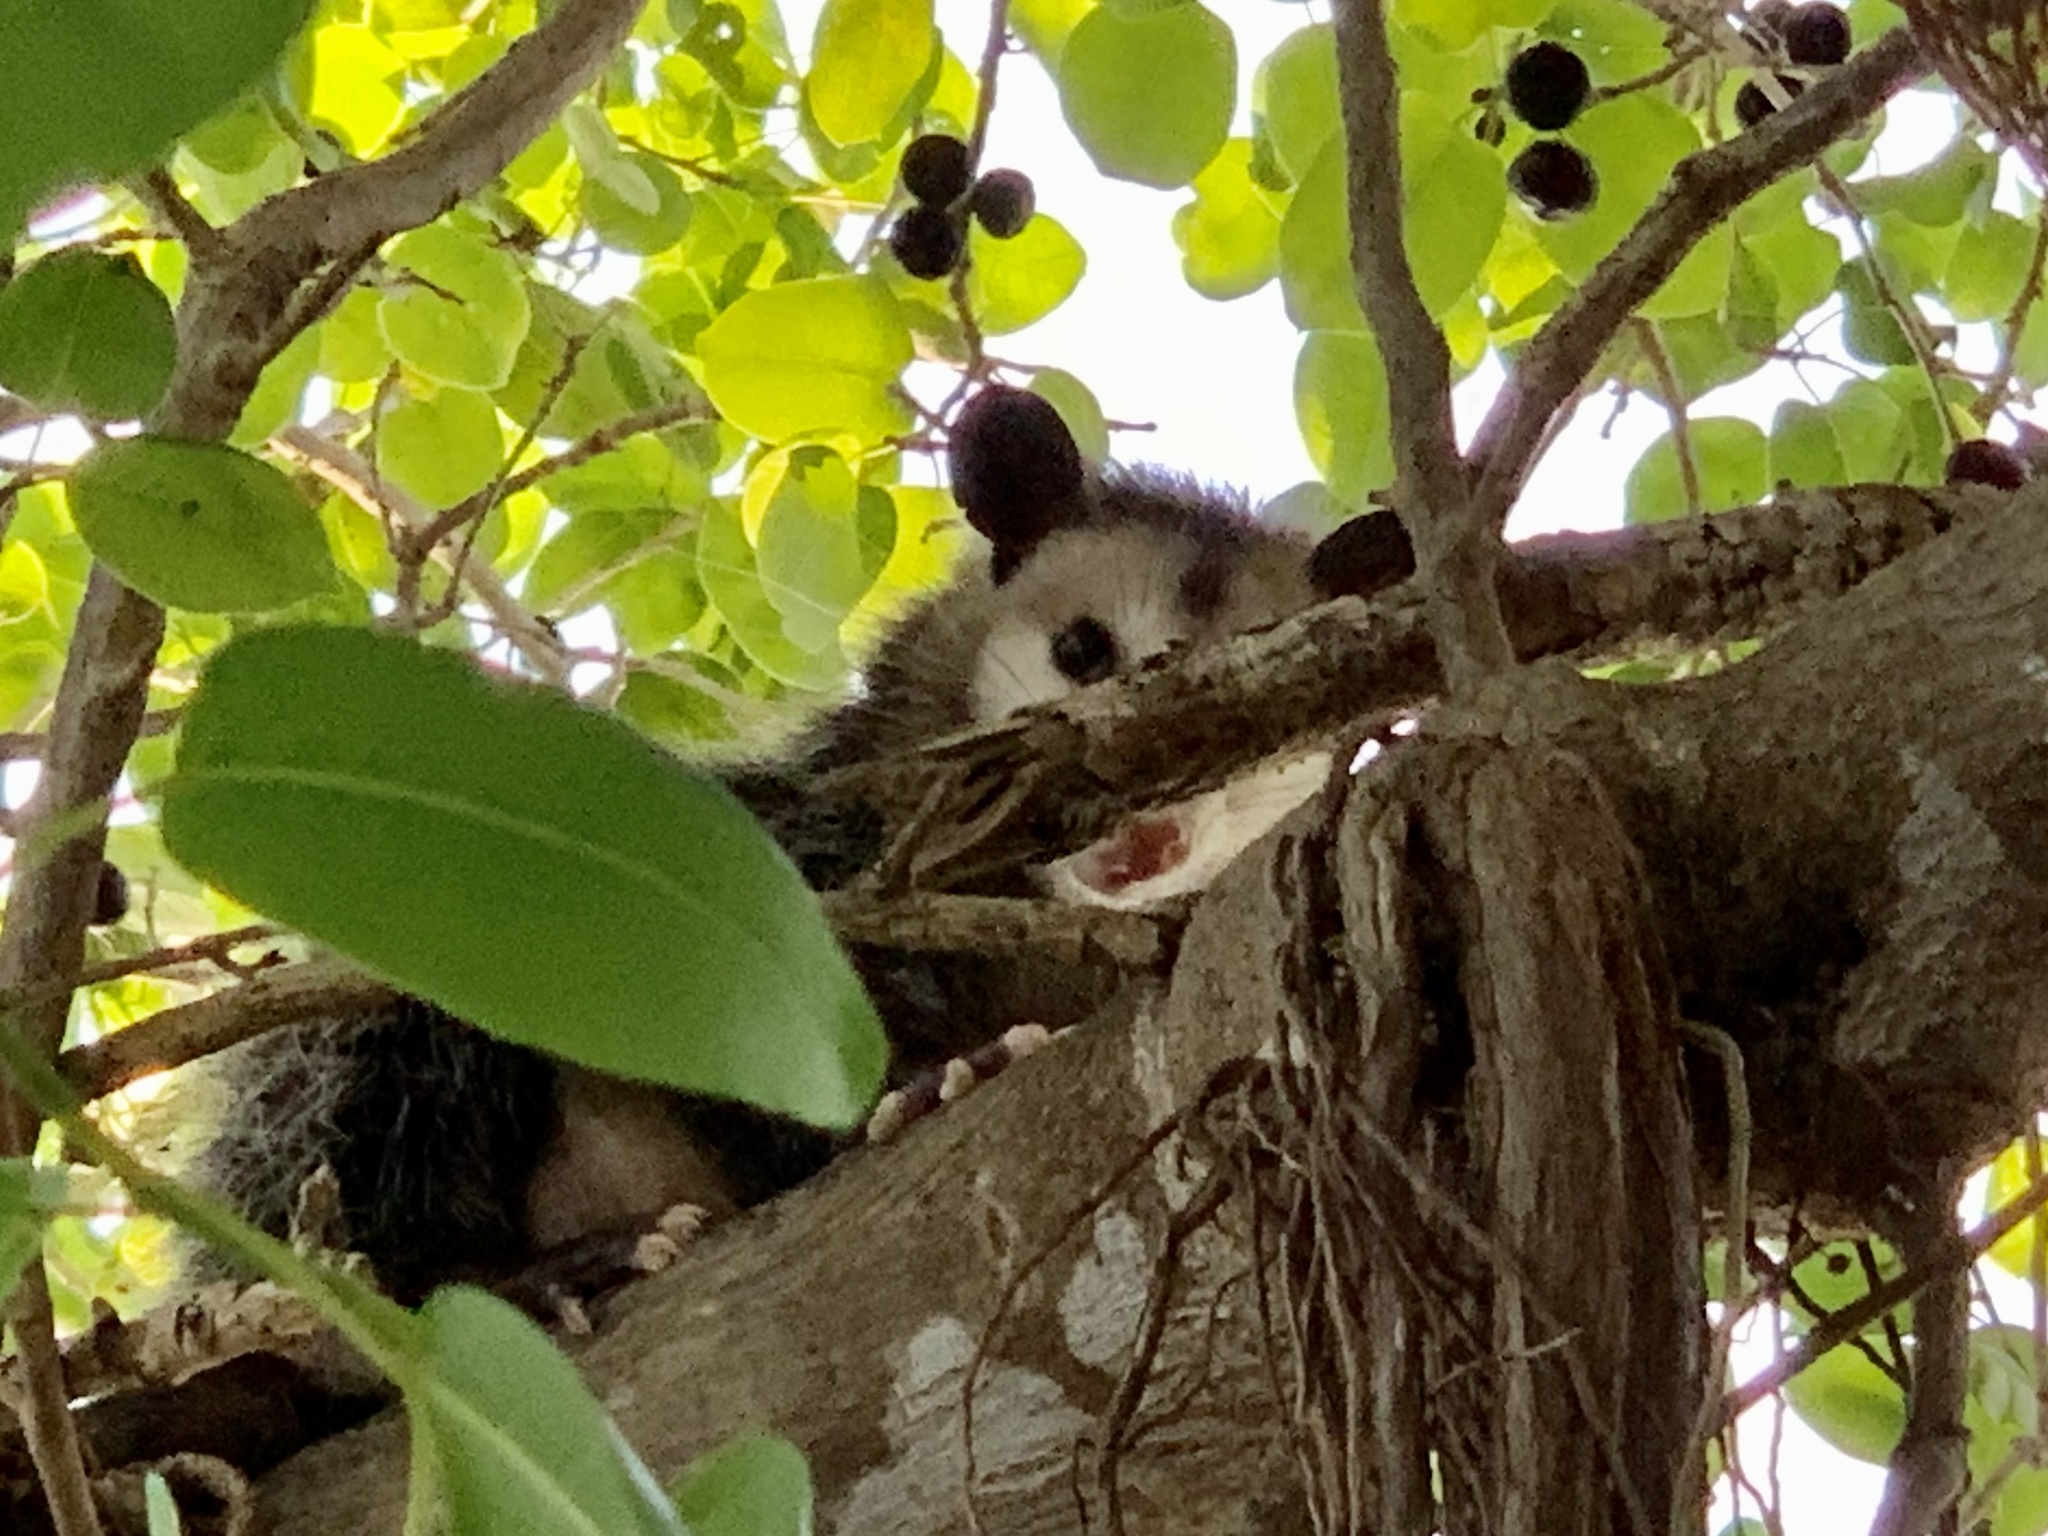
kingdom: Animalia
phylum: Chordata
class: Mammalia
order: Didelphimorphia
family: Didelphidae
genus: Didelphis
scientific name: Didelphis virginiana
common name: Virginia opossum
